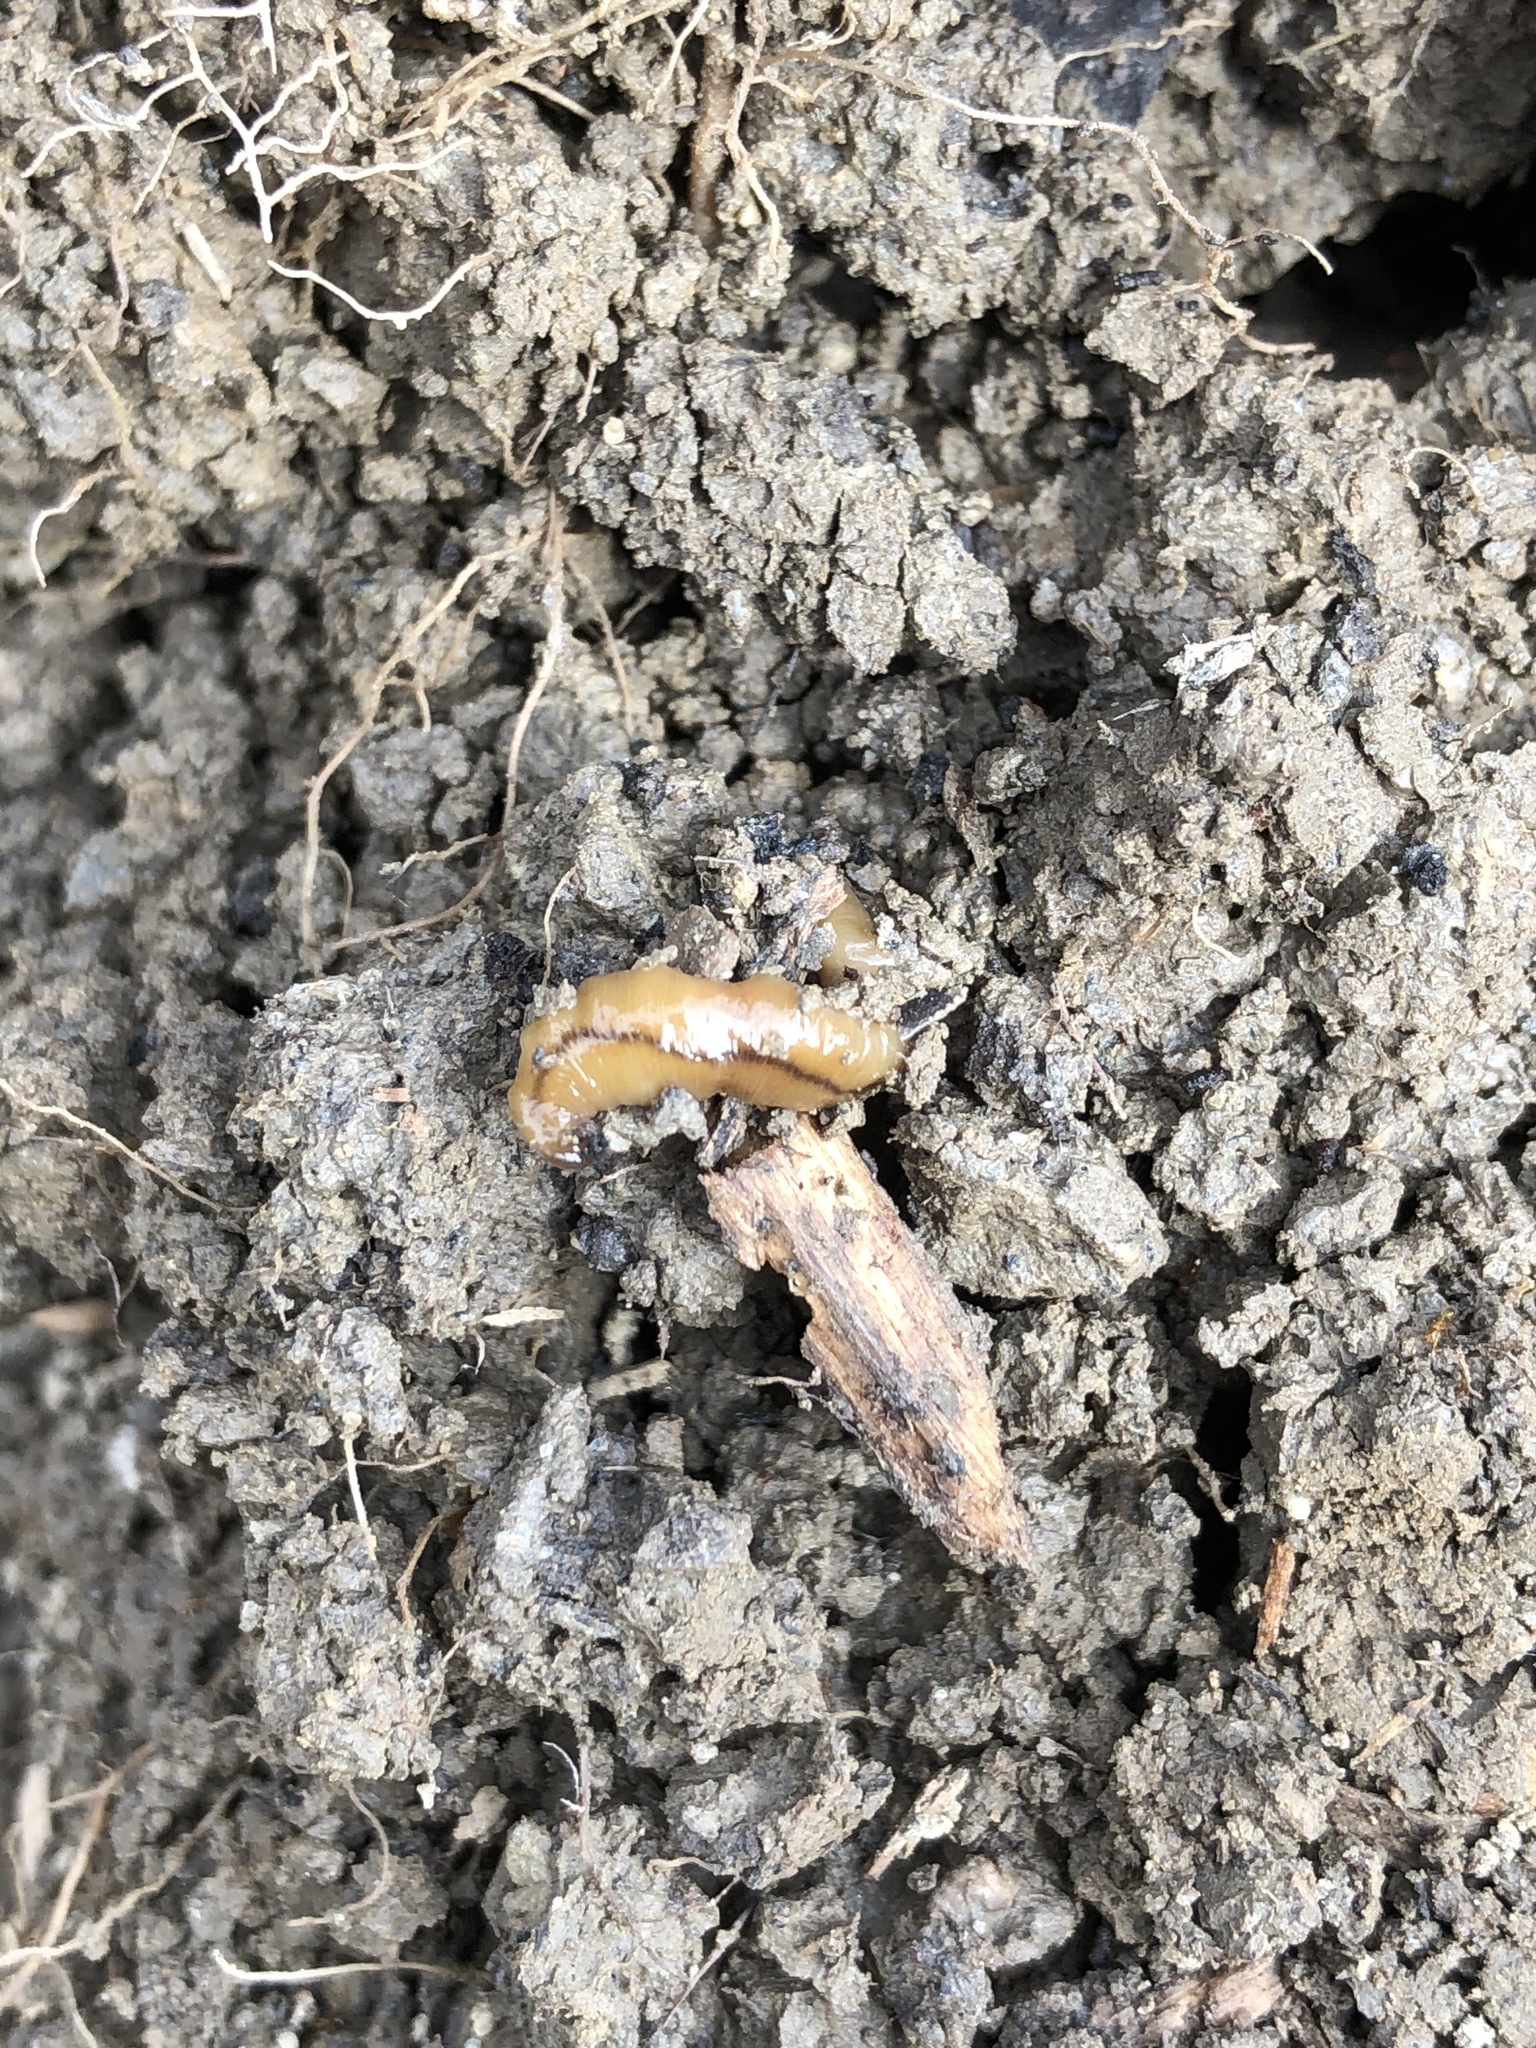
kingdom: Animalia
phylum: Platyhelminthes
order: Tricladida
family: Geoplanidae
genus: Bipalium
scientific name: Bipalium adventitium
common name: Land planarian
